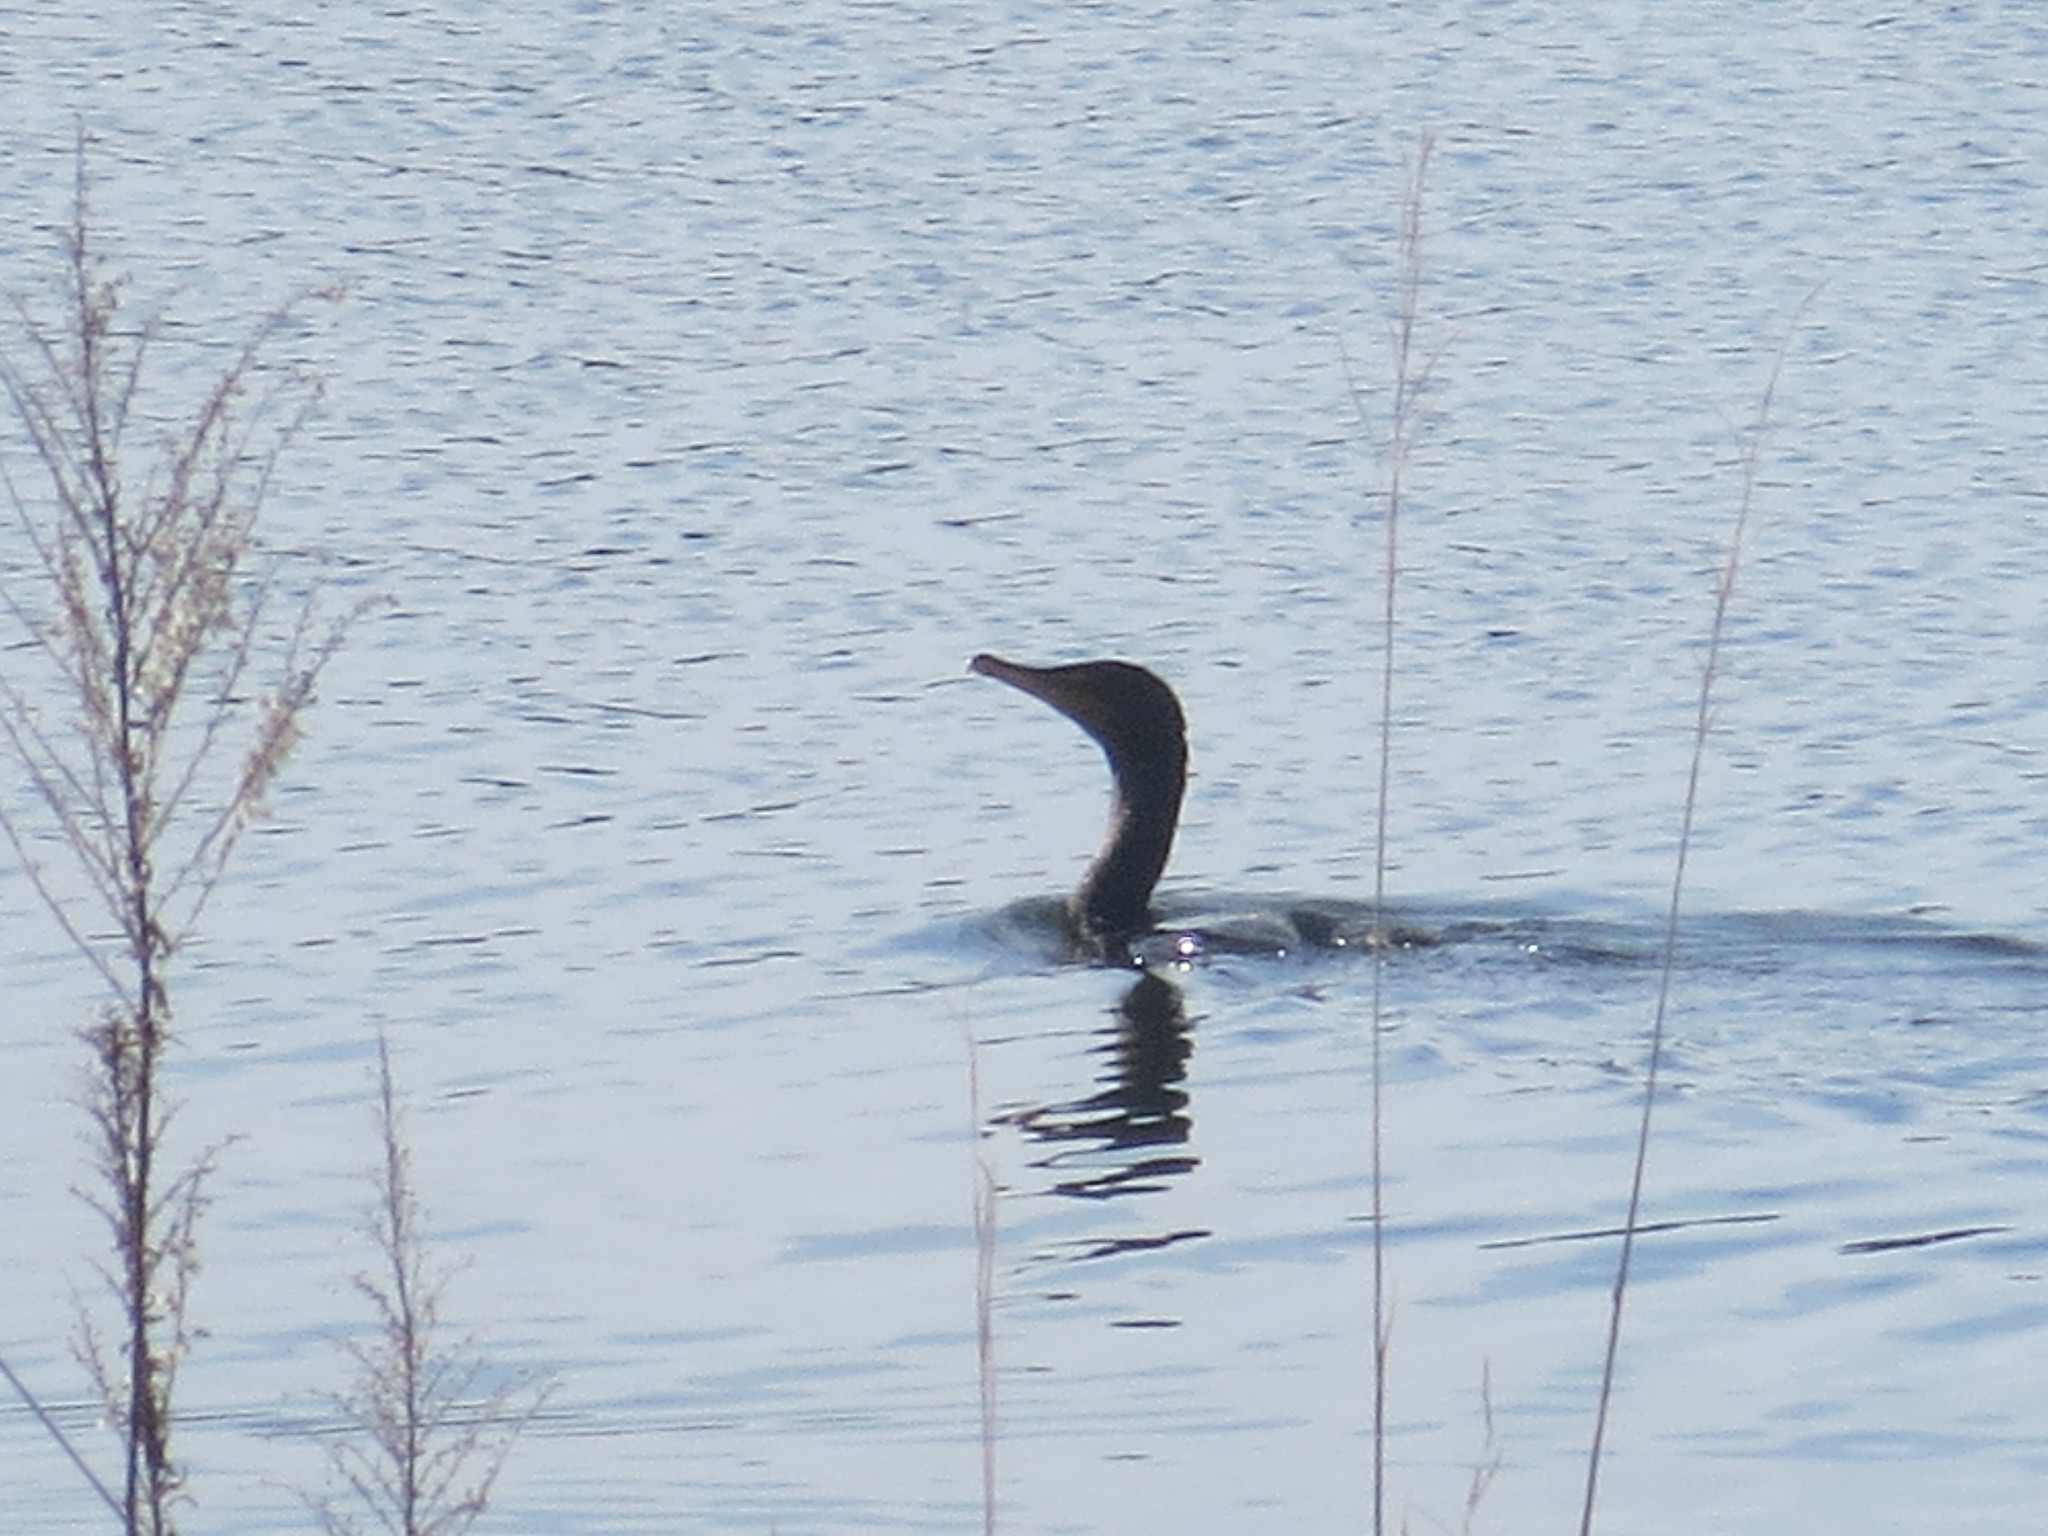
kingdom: Animalia
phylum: Chordata
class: Aves
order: Suliformes
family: Phalacrocoracidae
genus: Phalacrocorax
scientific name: Phalacrocorax auritus
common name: Double-crested cormorant
